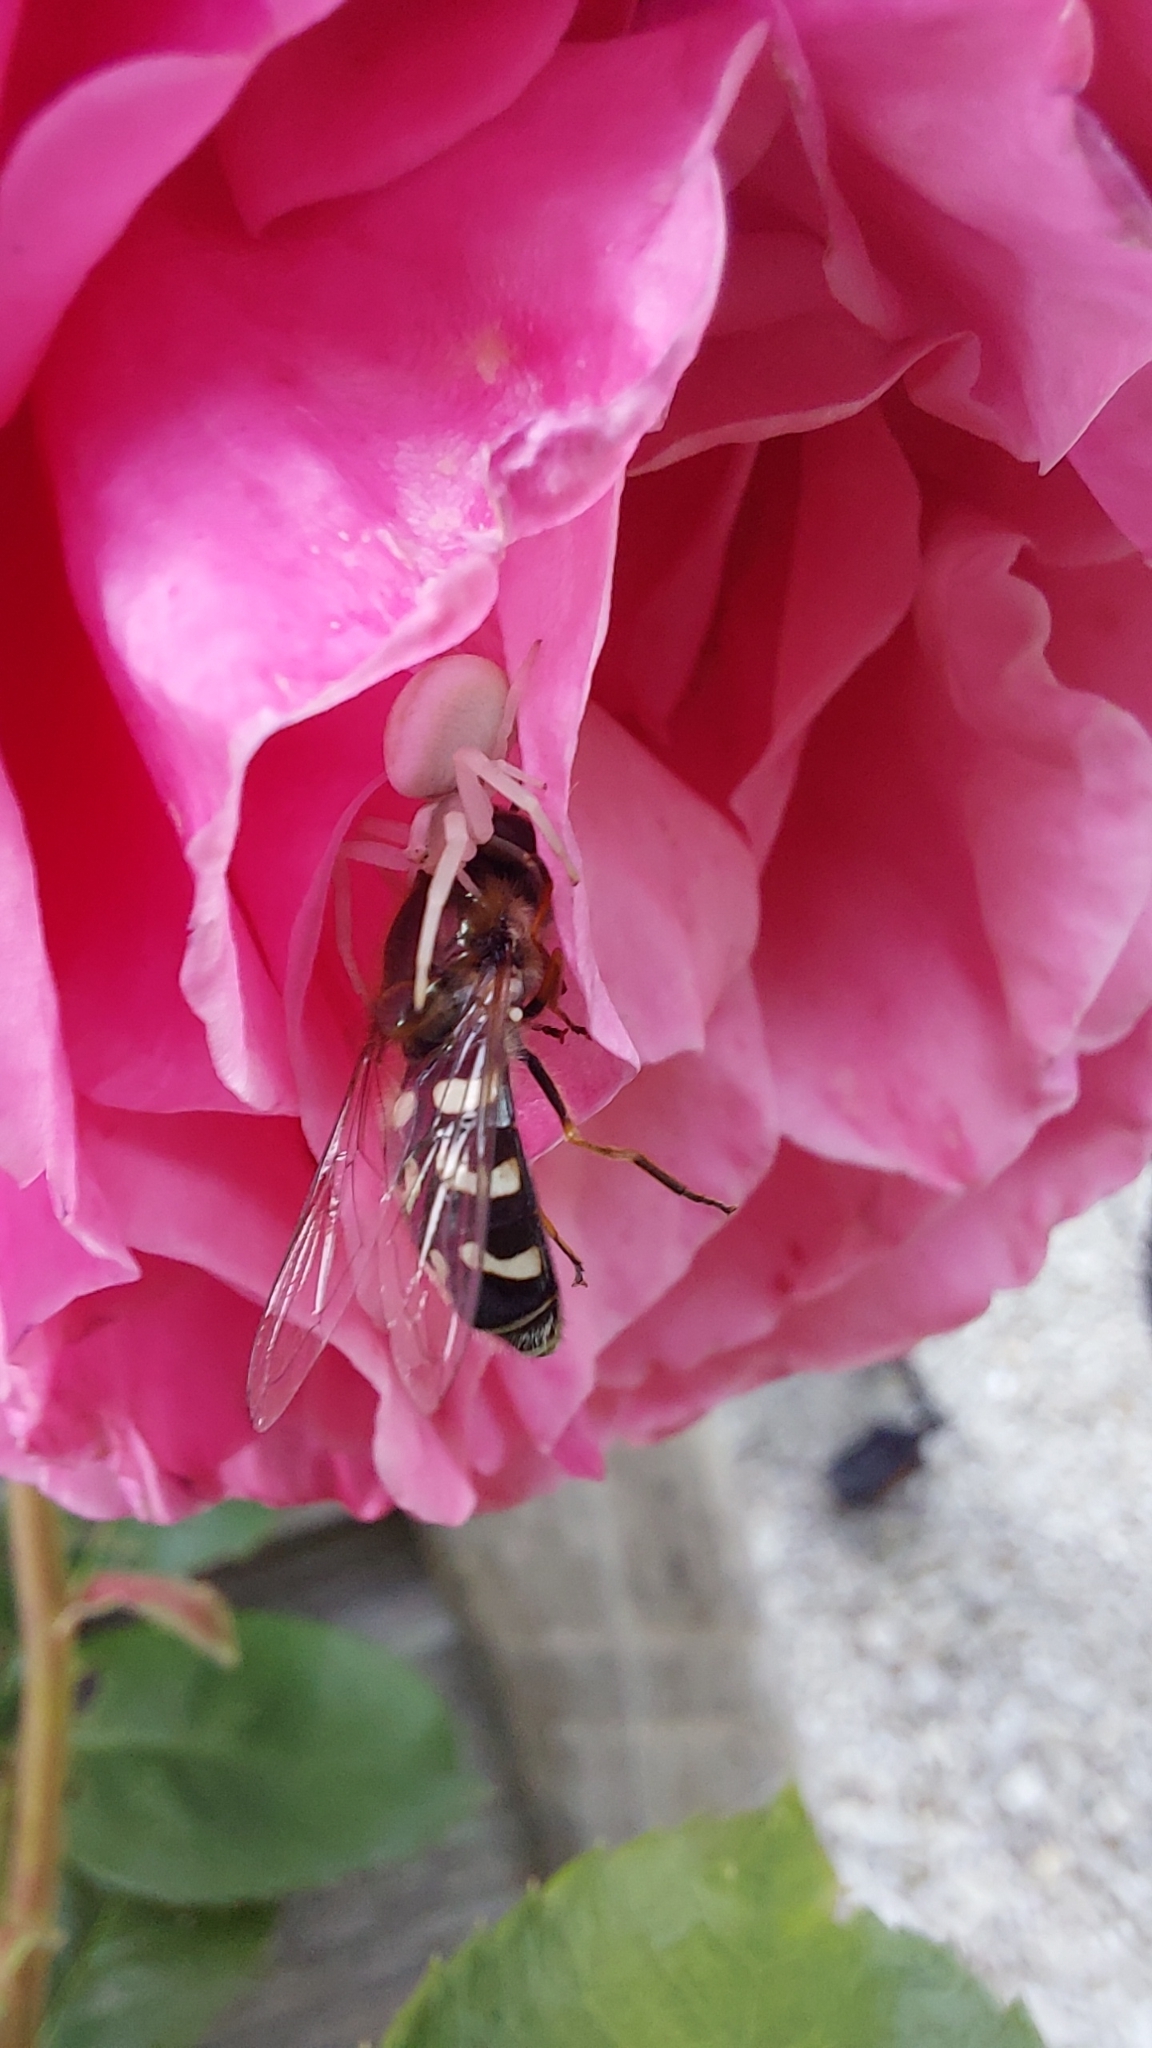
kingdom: Animalia
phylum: Arthropoda
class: Insecta
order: Diptera
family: Syrphidae
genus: Scaeva
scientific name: Scaeva pyrastri
